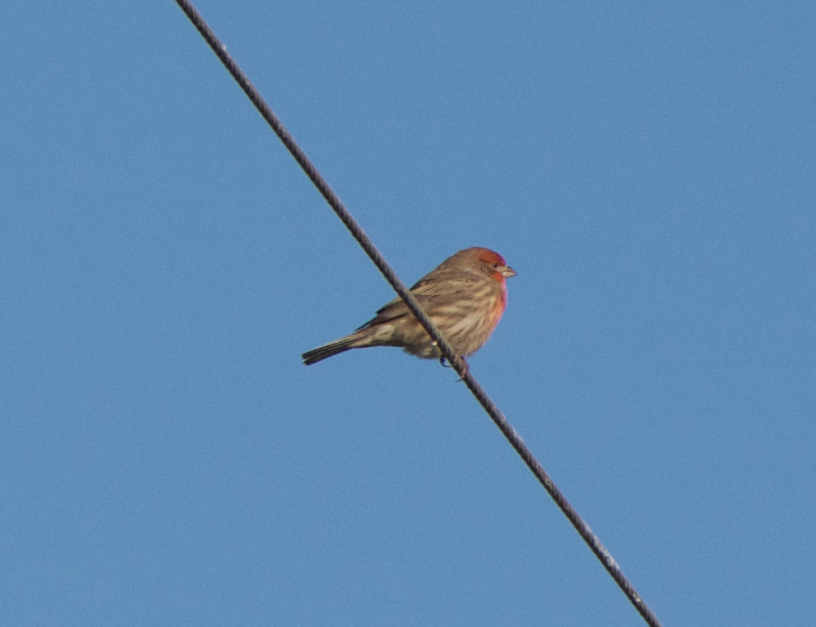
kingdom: Animalia
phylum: Chordata
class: Aves
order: Passeriformes
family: Fringillidae
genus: Haemorhous
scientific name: Haemorhous mexicanus
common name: House finch
